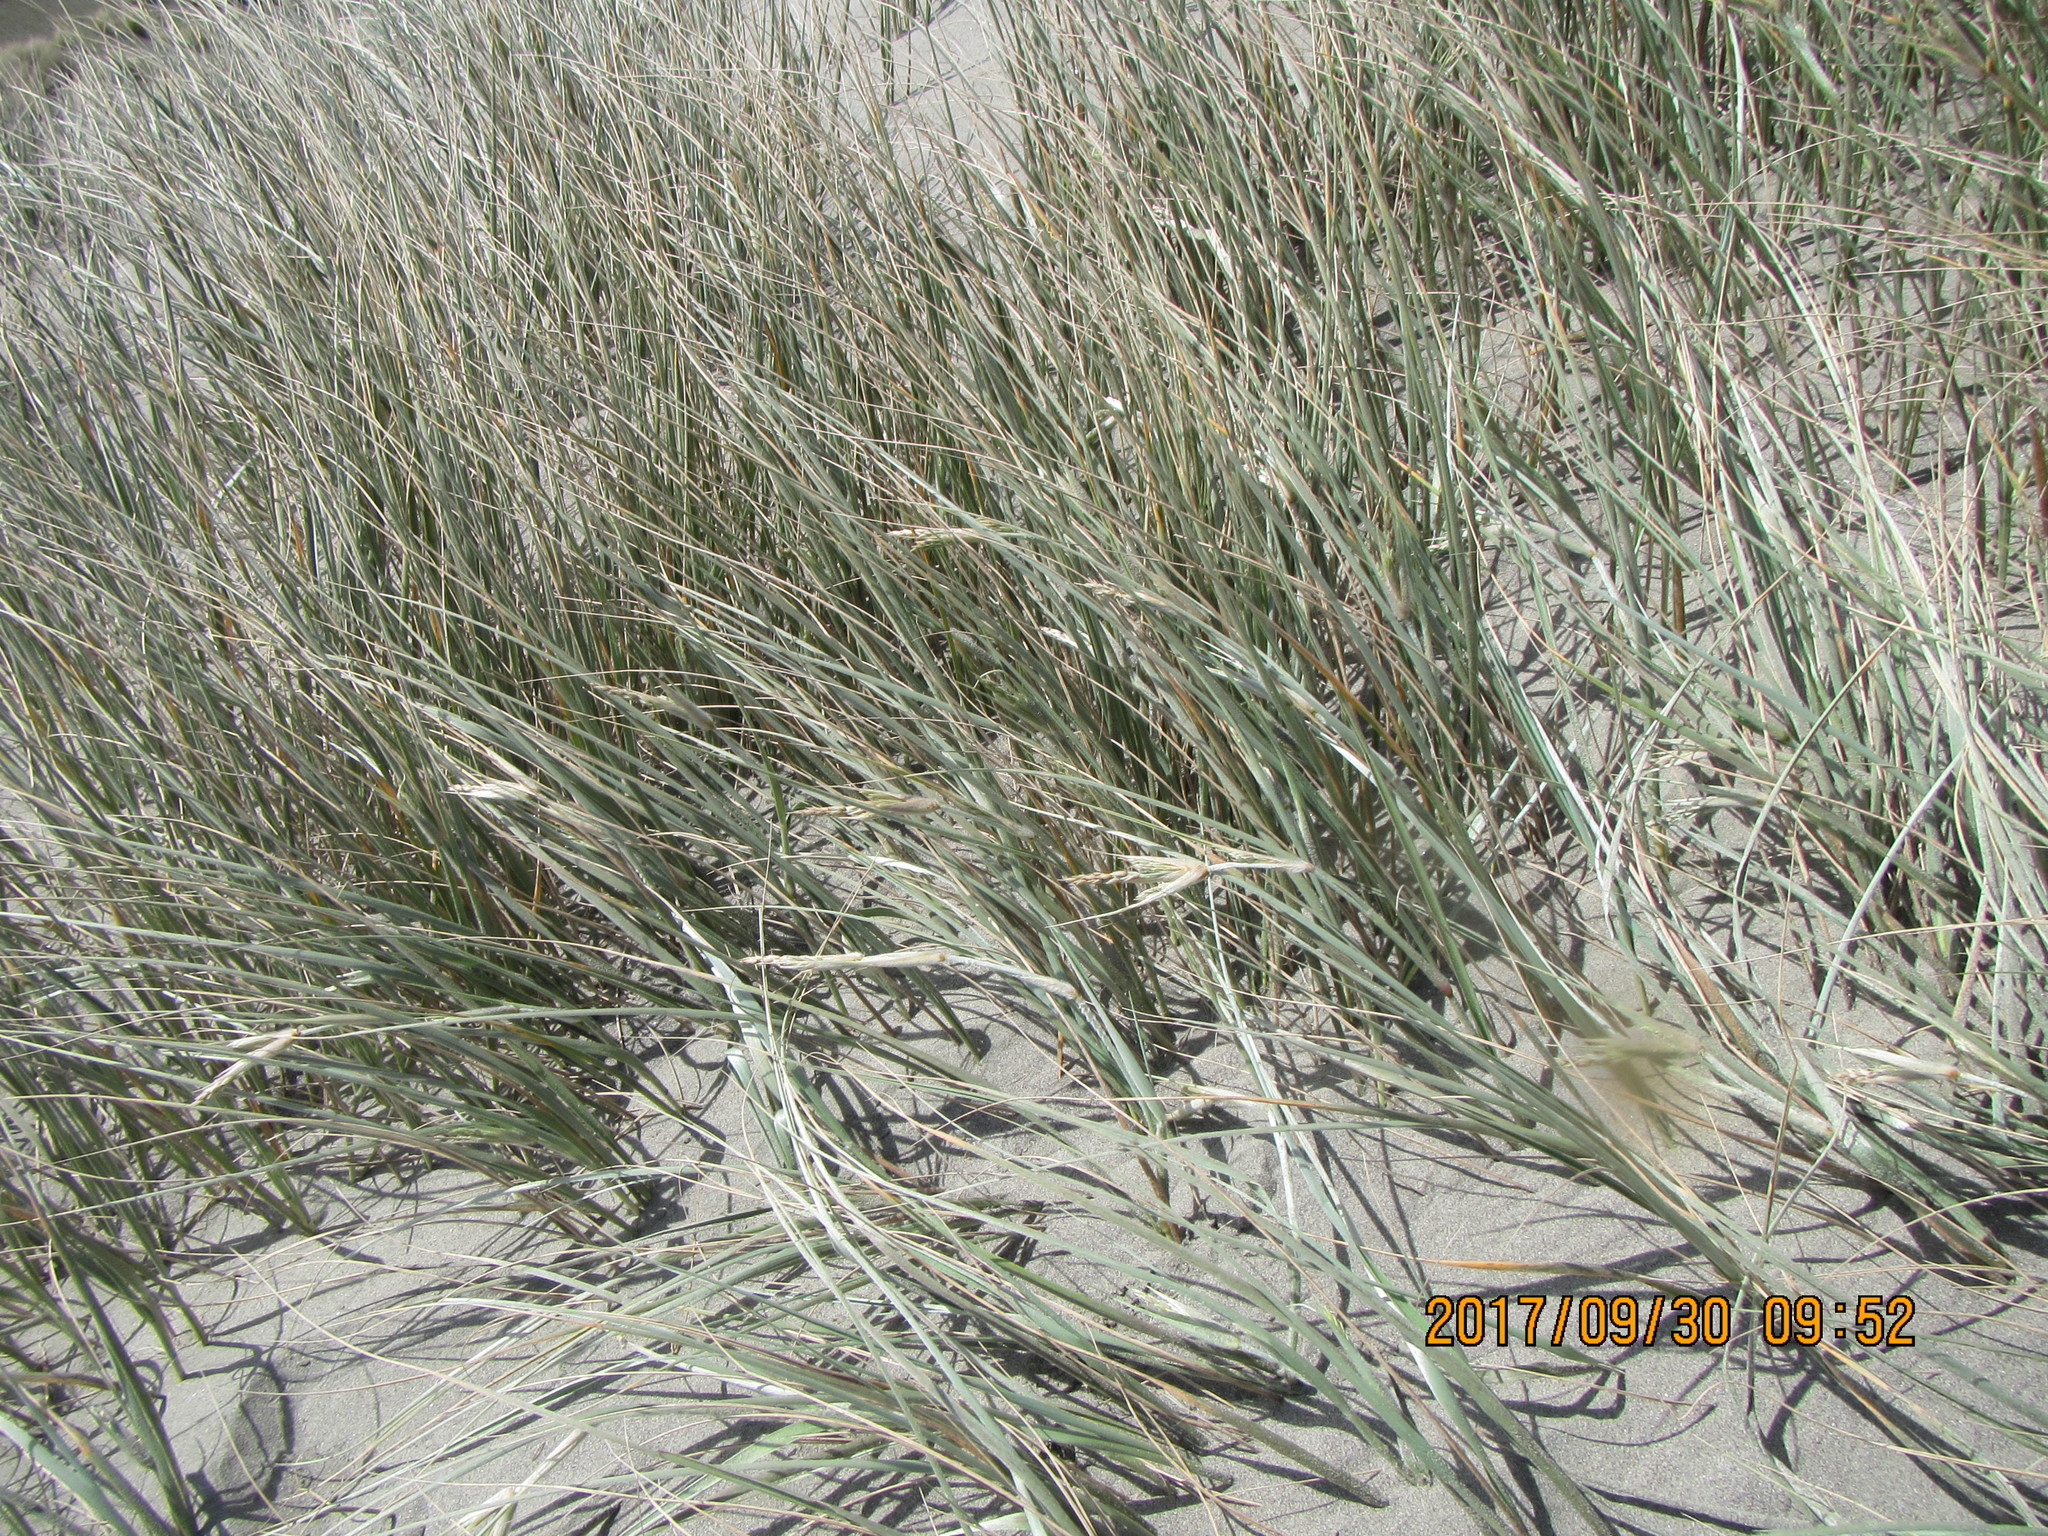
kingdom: Plantae
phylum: Tracheophyta
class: Liliopsida
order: Poales
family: Poaceae
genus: Spinifex
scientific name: Spinifex sericeus
